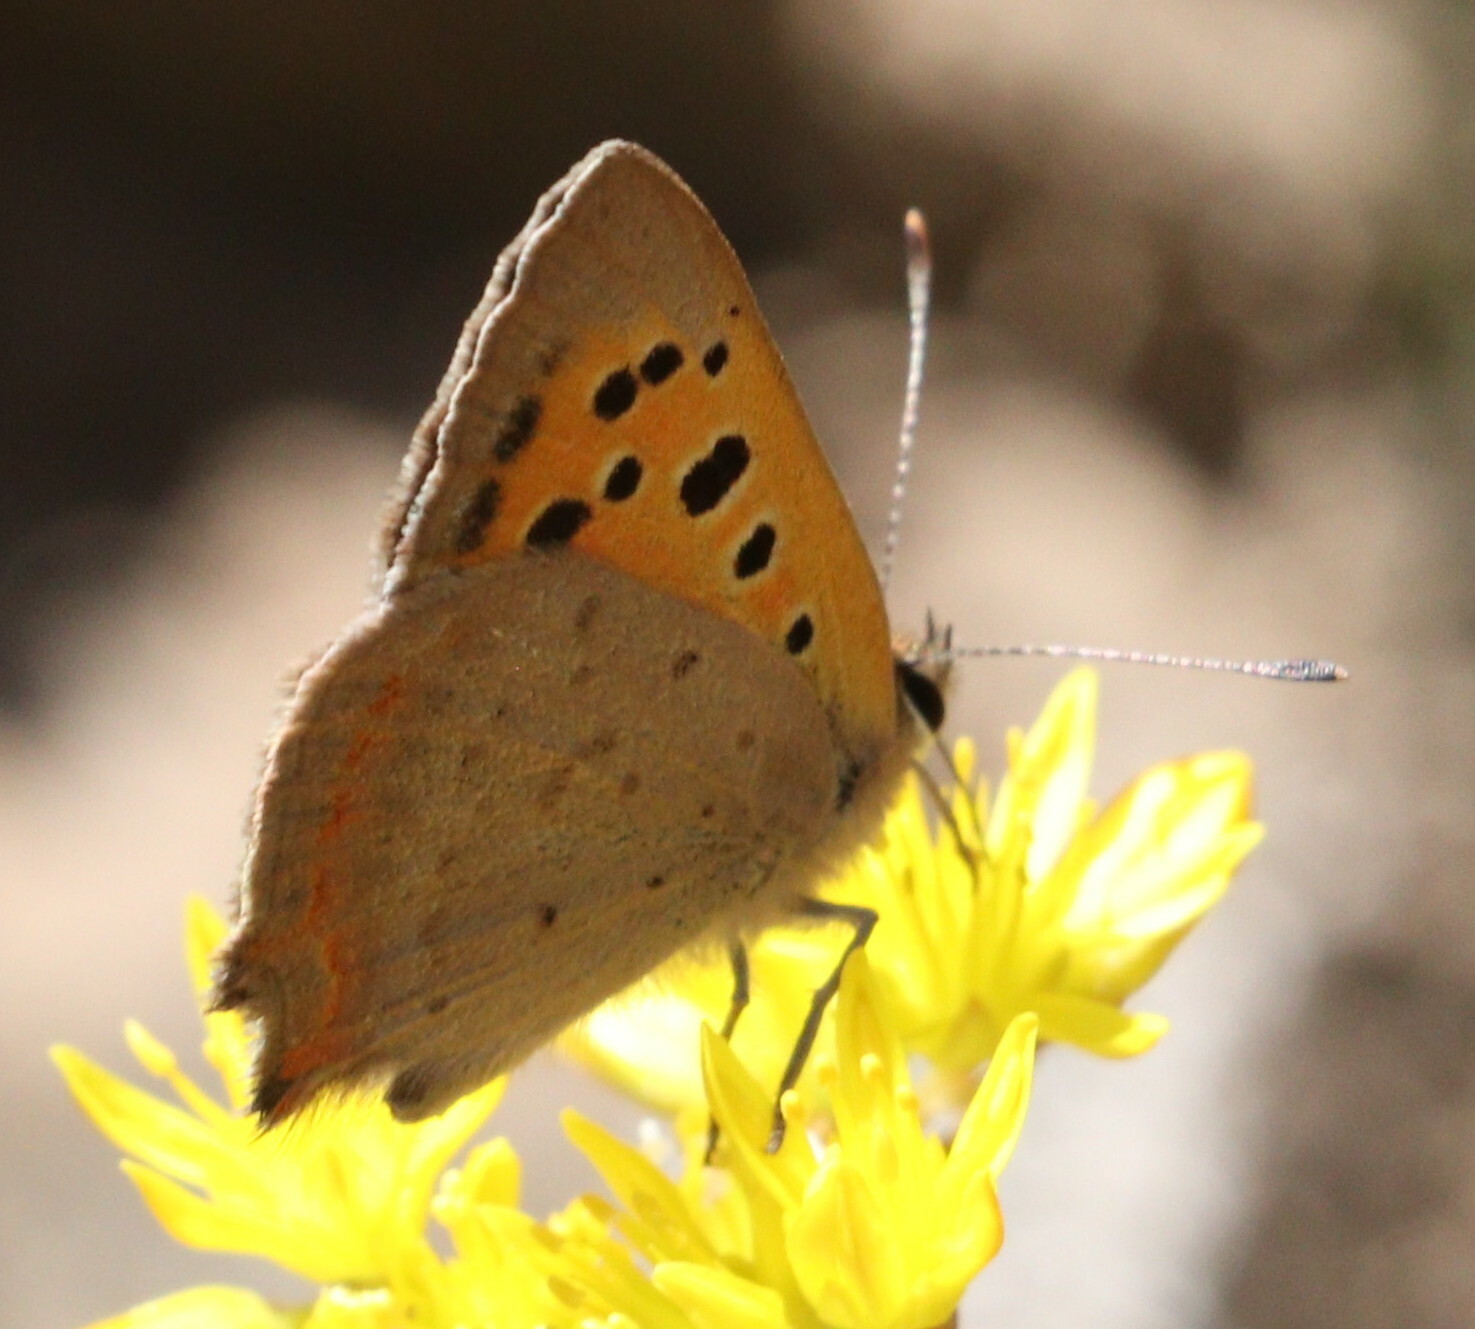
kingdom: Animalia
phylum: Arthropoda
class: Insecta
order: Lepidoptera
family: Lycaenidae
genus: Lycaena
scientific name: Lycaena phlaeas
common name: Small copper
